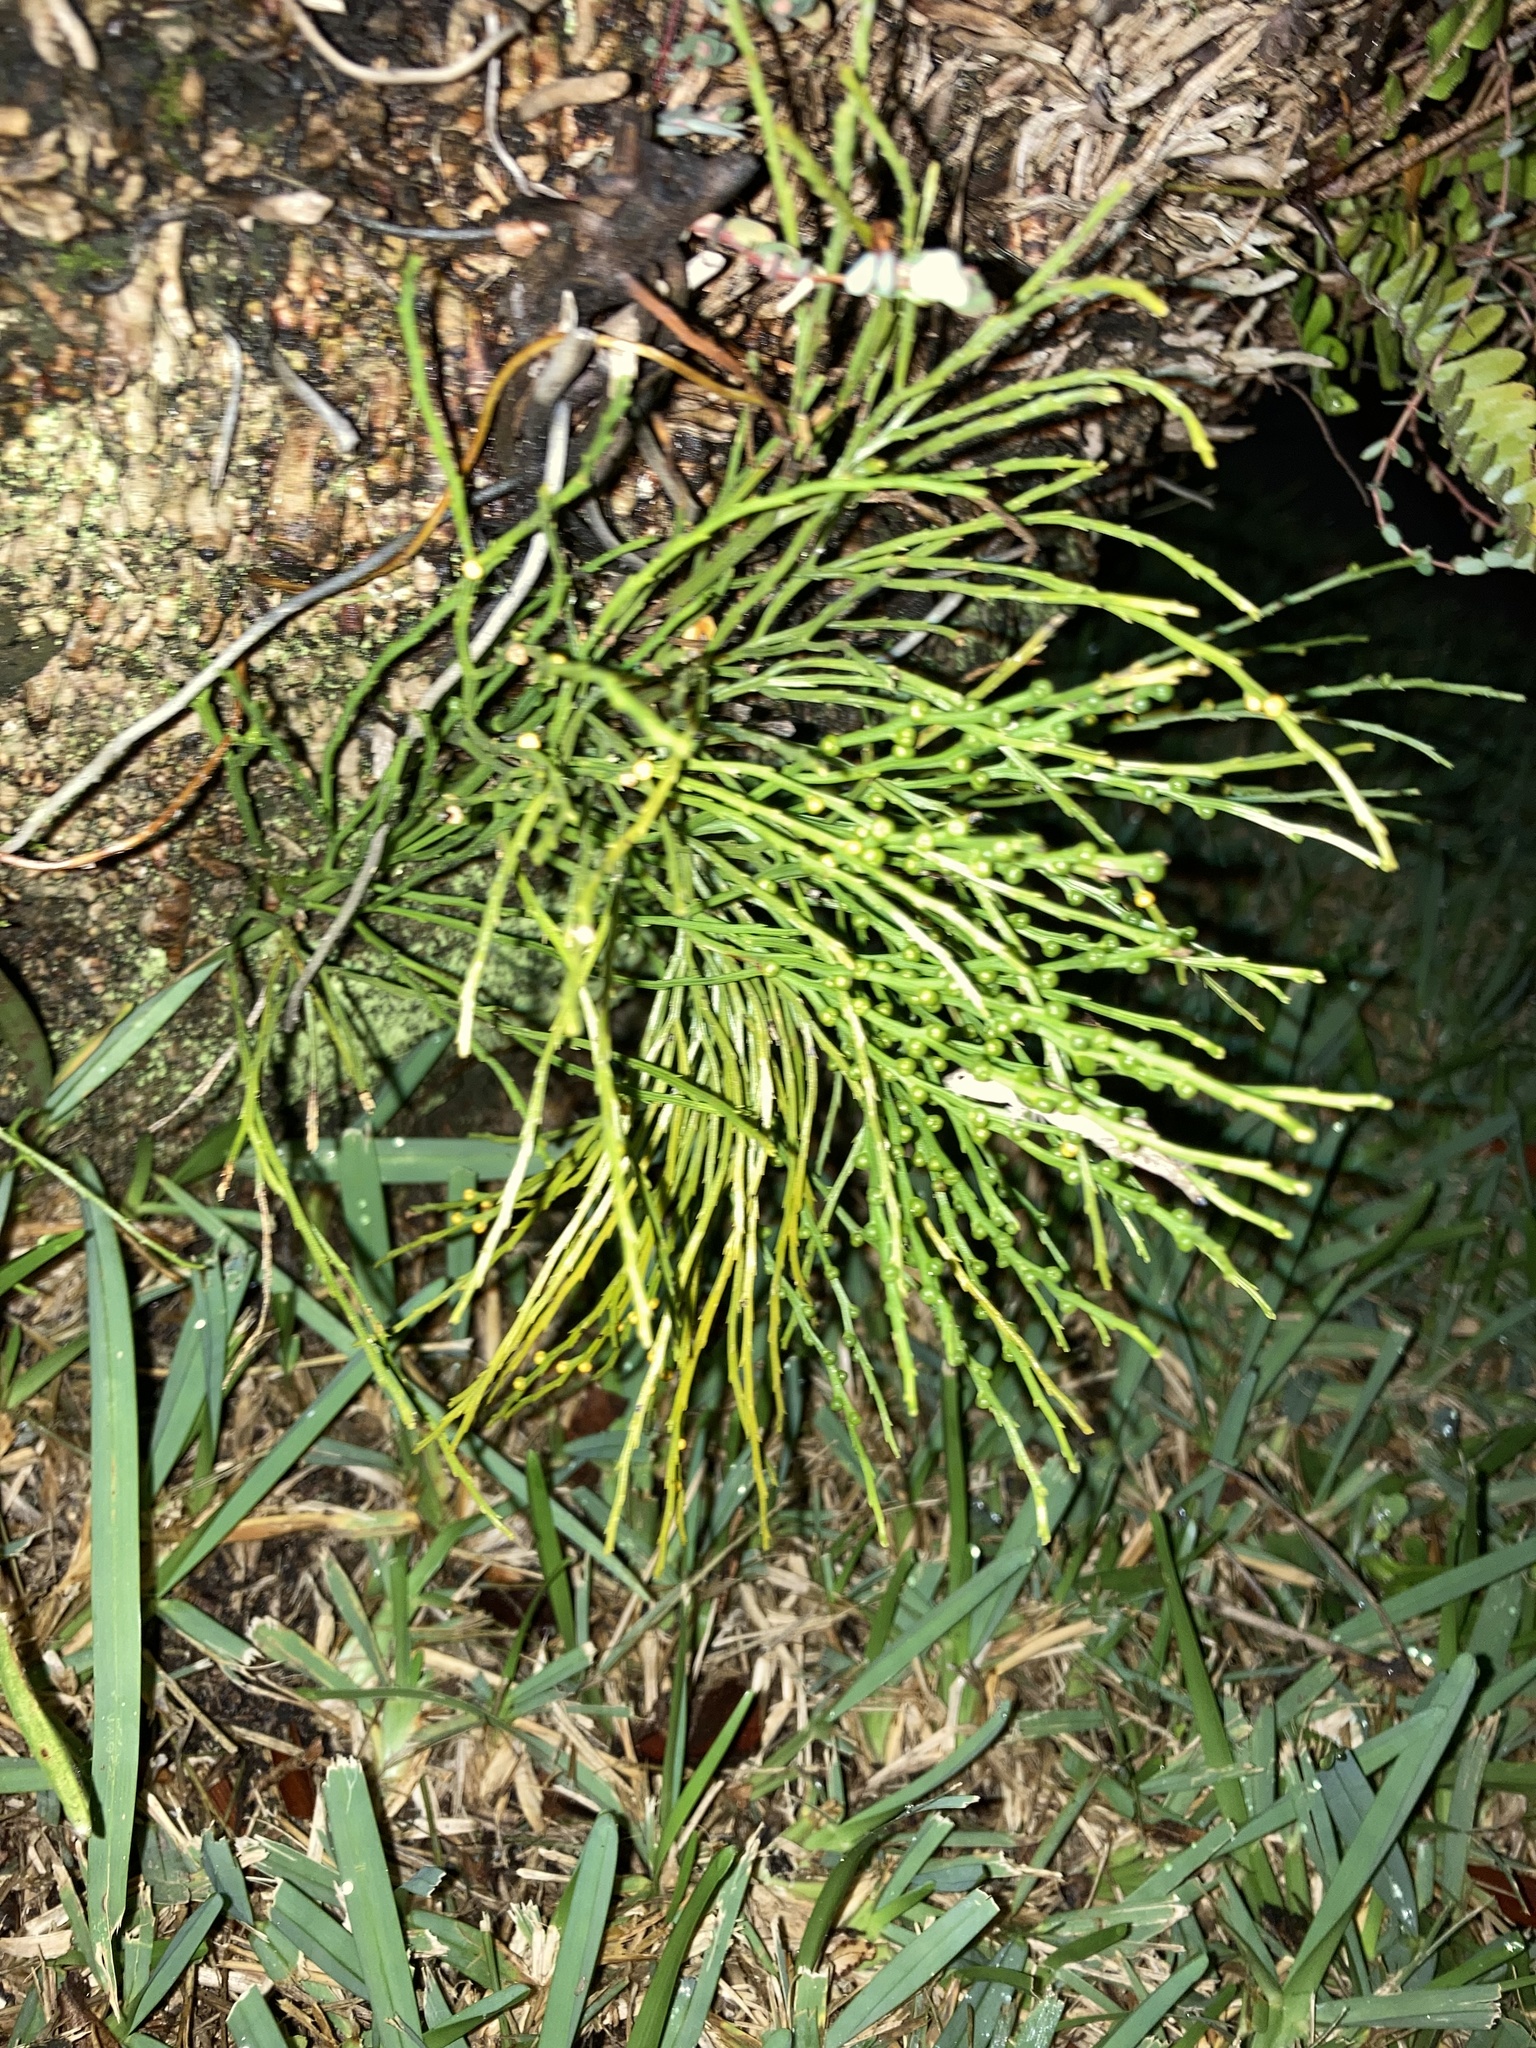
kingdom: Plantae
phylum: Tracheophyta
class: Polypodiopsida
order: Psilotales
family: Psilotaceae
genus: Psilotum
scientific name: Psilotum nudum
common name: Skeleton fork fern
